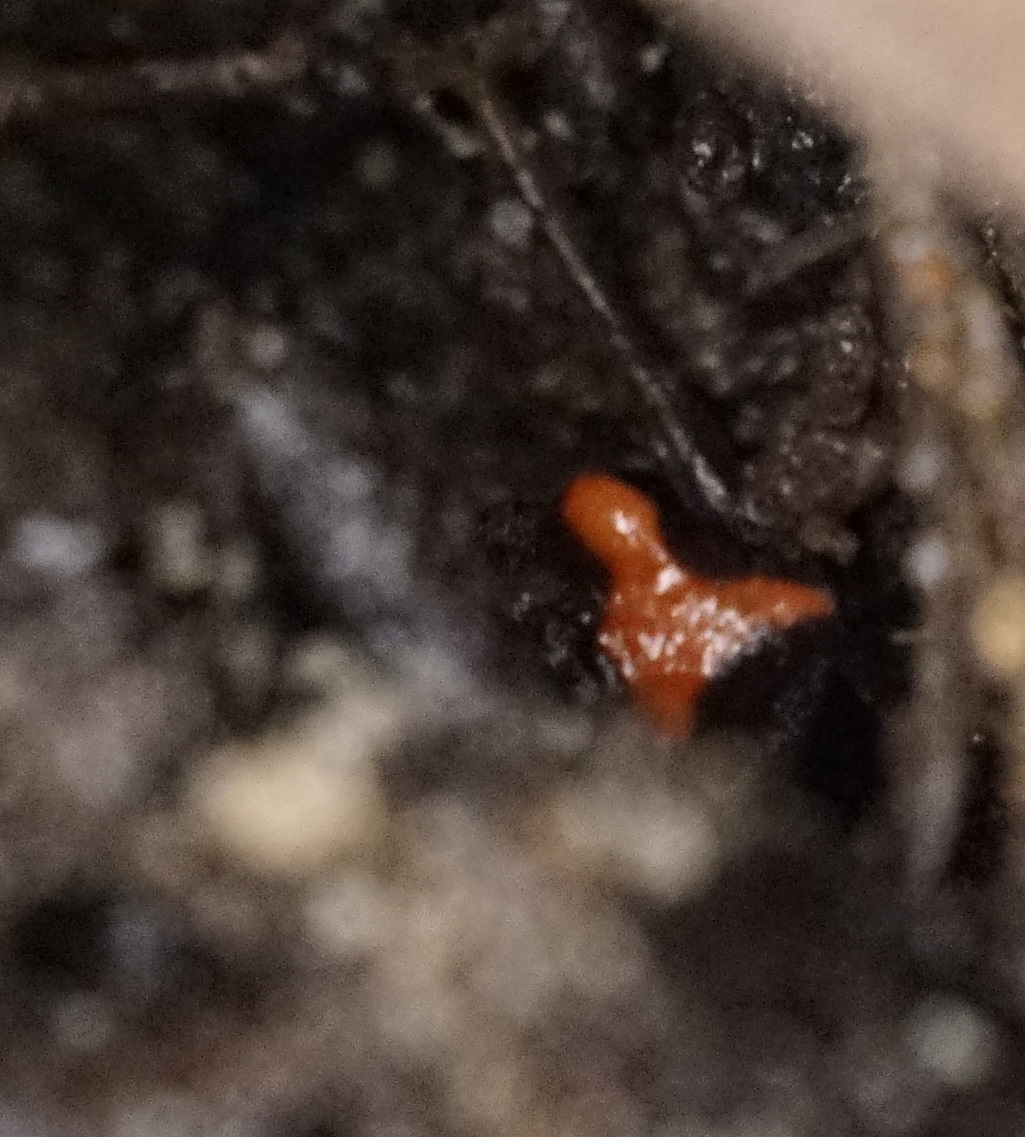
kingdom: Animalia
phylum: Chordata
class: Amphibia
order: Anura
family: Myobatrachidae
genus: Pseudophryne
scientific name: Pseudophryne australis
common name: Red-crowned toadlet
